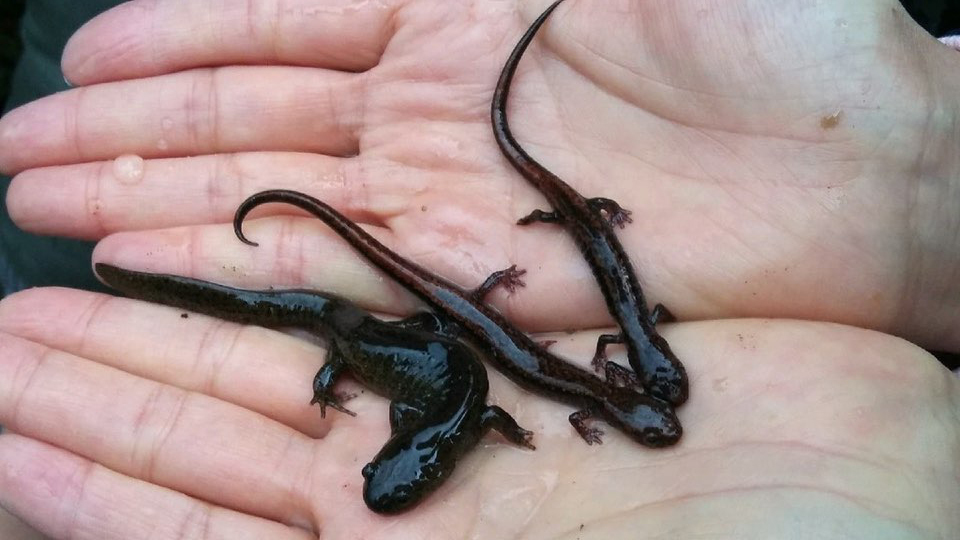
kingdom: Animalia
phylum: Chordata
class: Amphibia
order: Caudata
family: Plethodontidae
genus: Karsenia
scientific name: Karsenia koreana
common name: Korean crevice salamander
